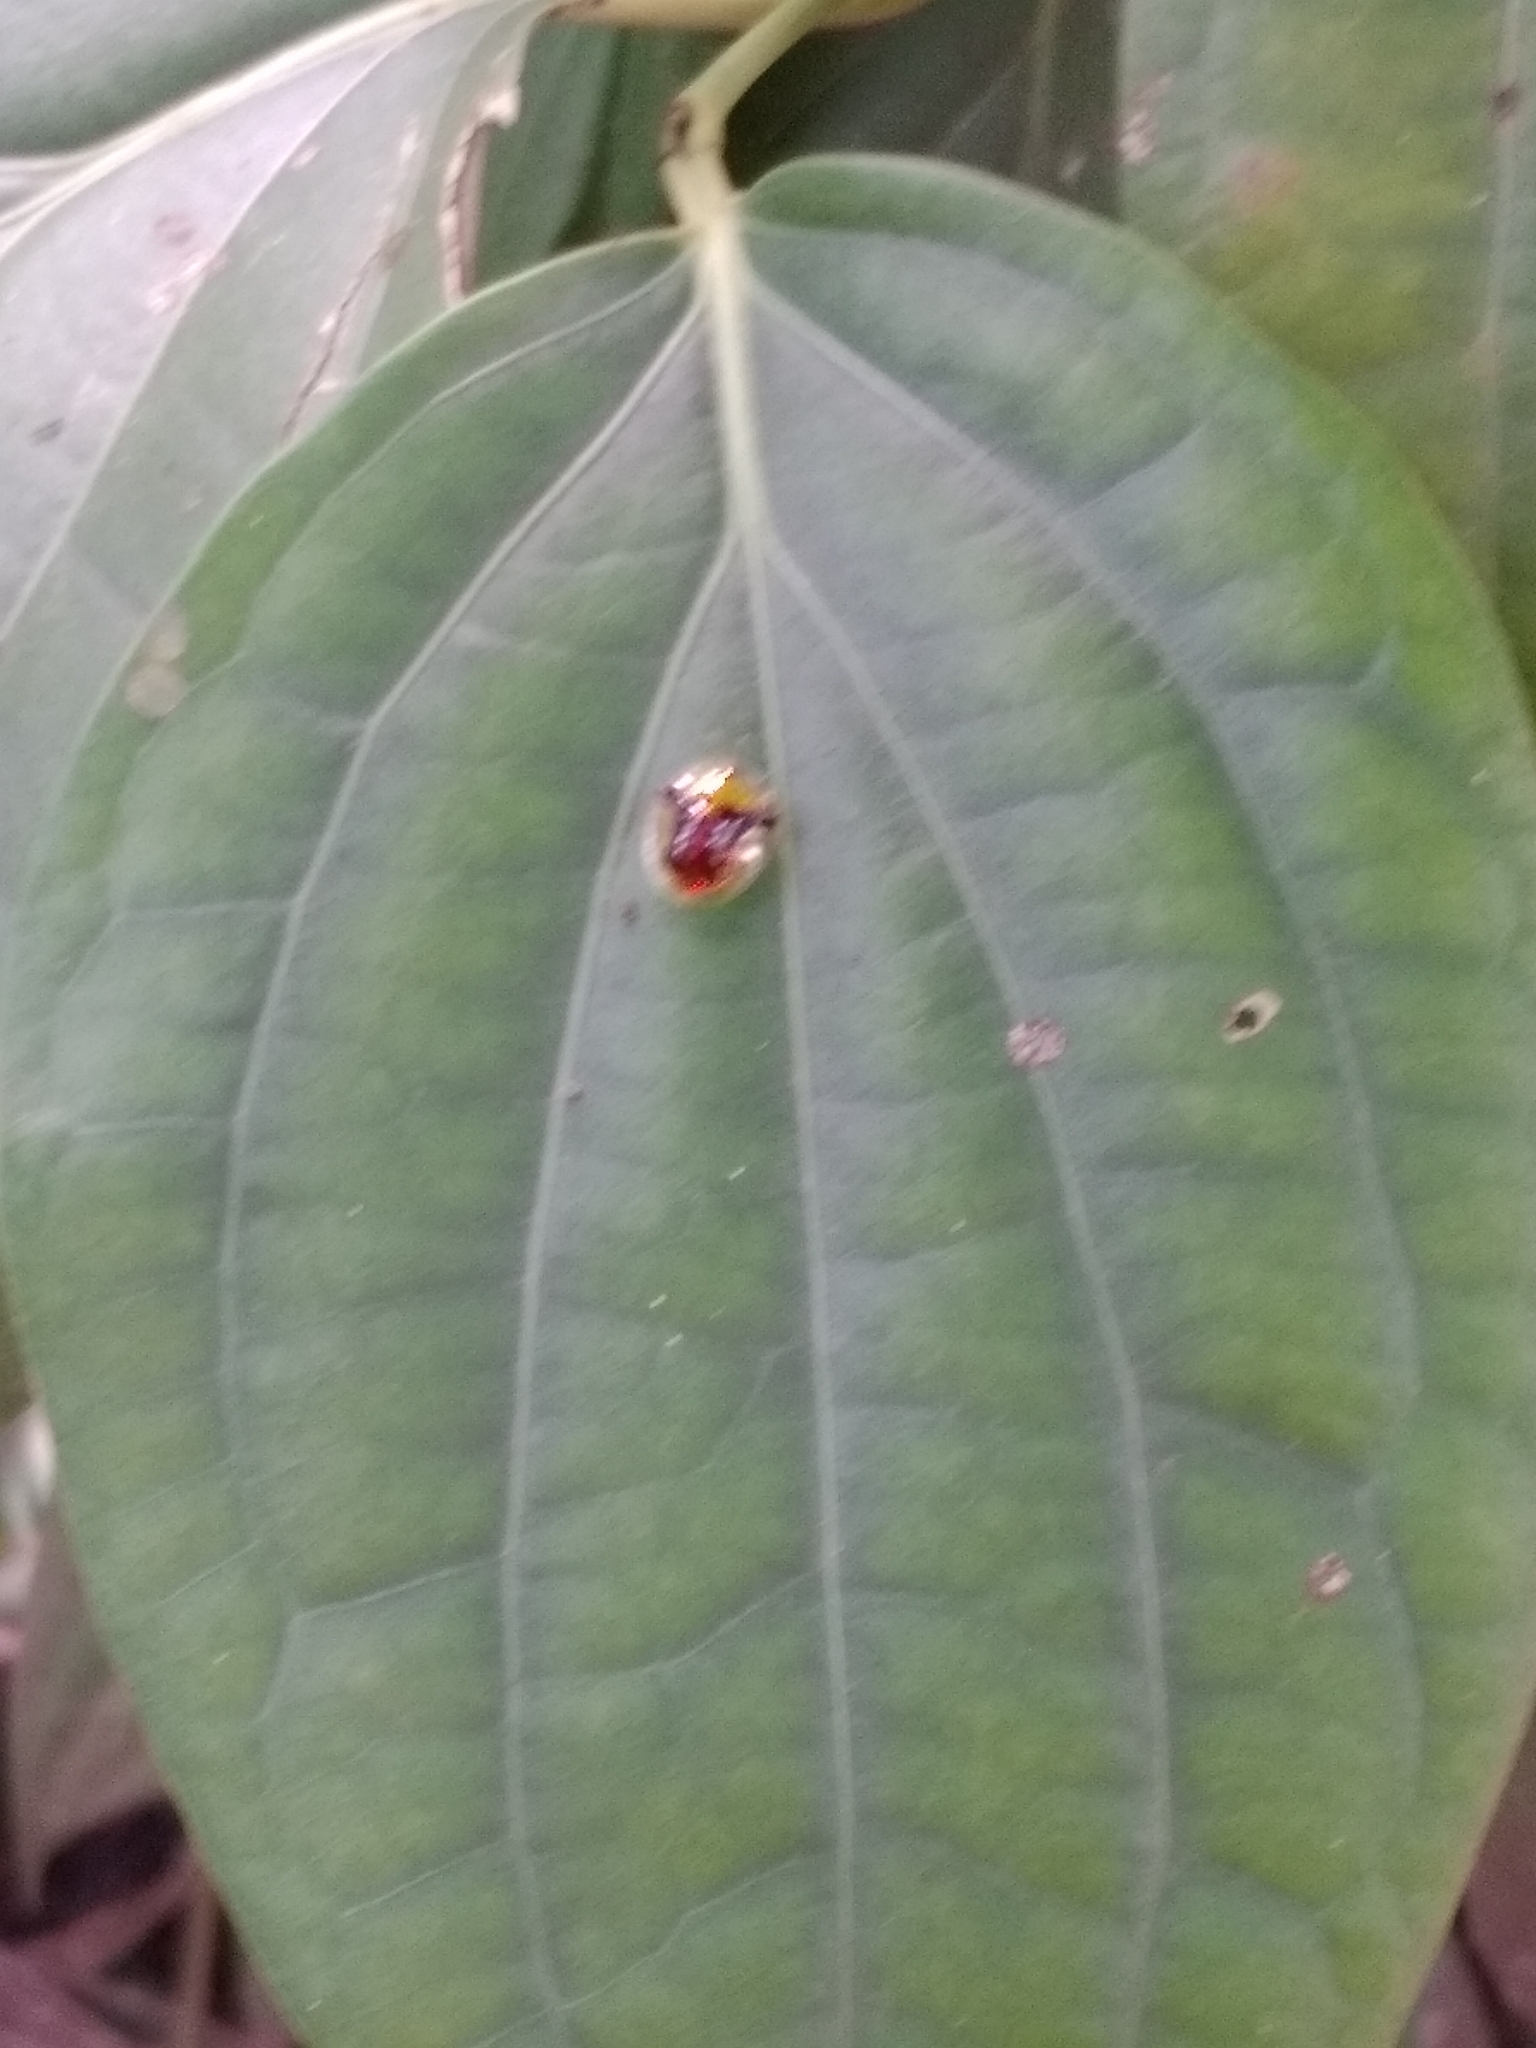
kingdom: Animalia
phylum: Arthropoda
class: Insecta
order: Coleoptera
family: Chrysomelidae
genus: Aspidimorpha
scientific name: Aspidimorpha furcata
